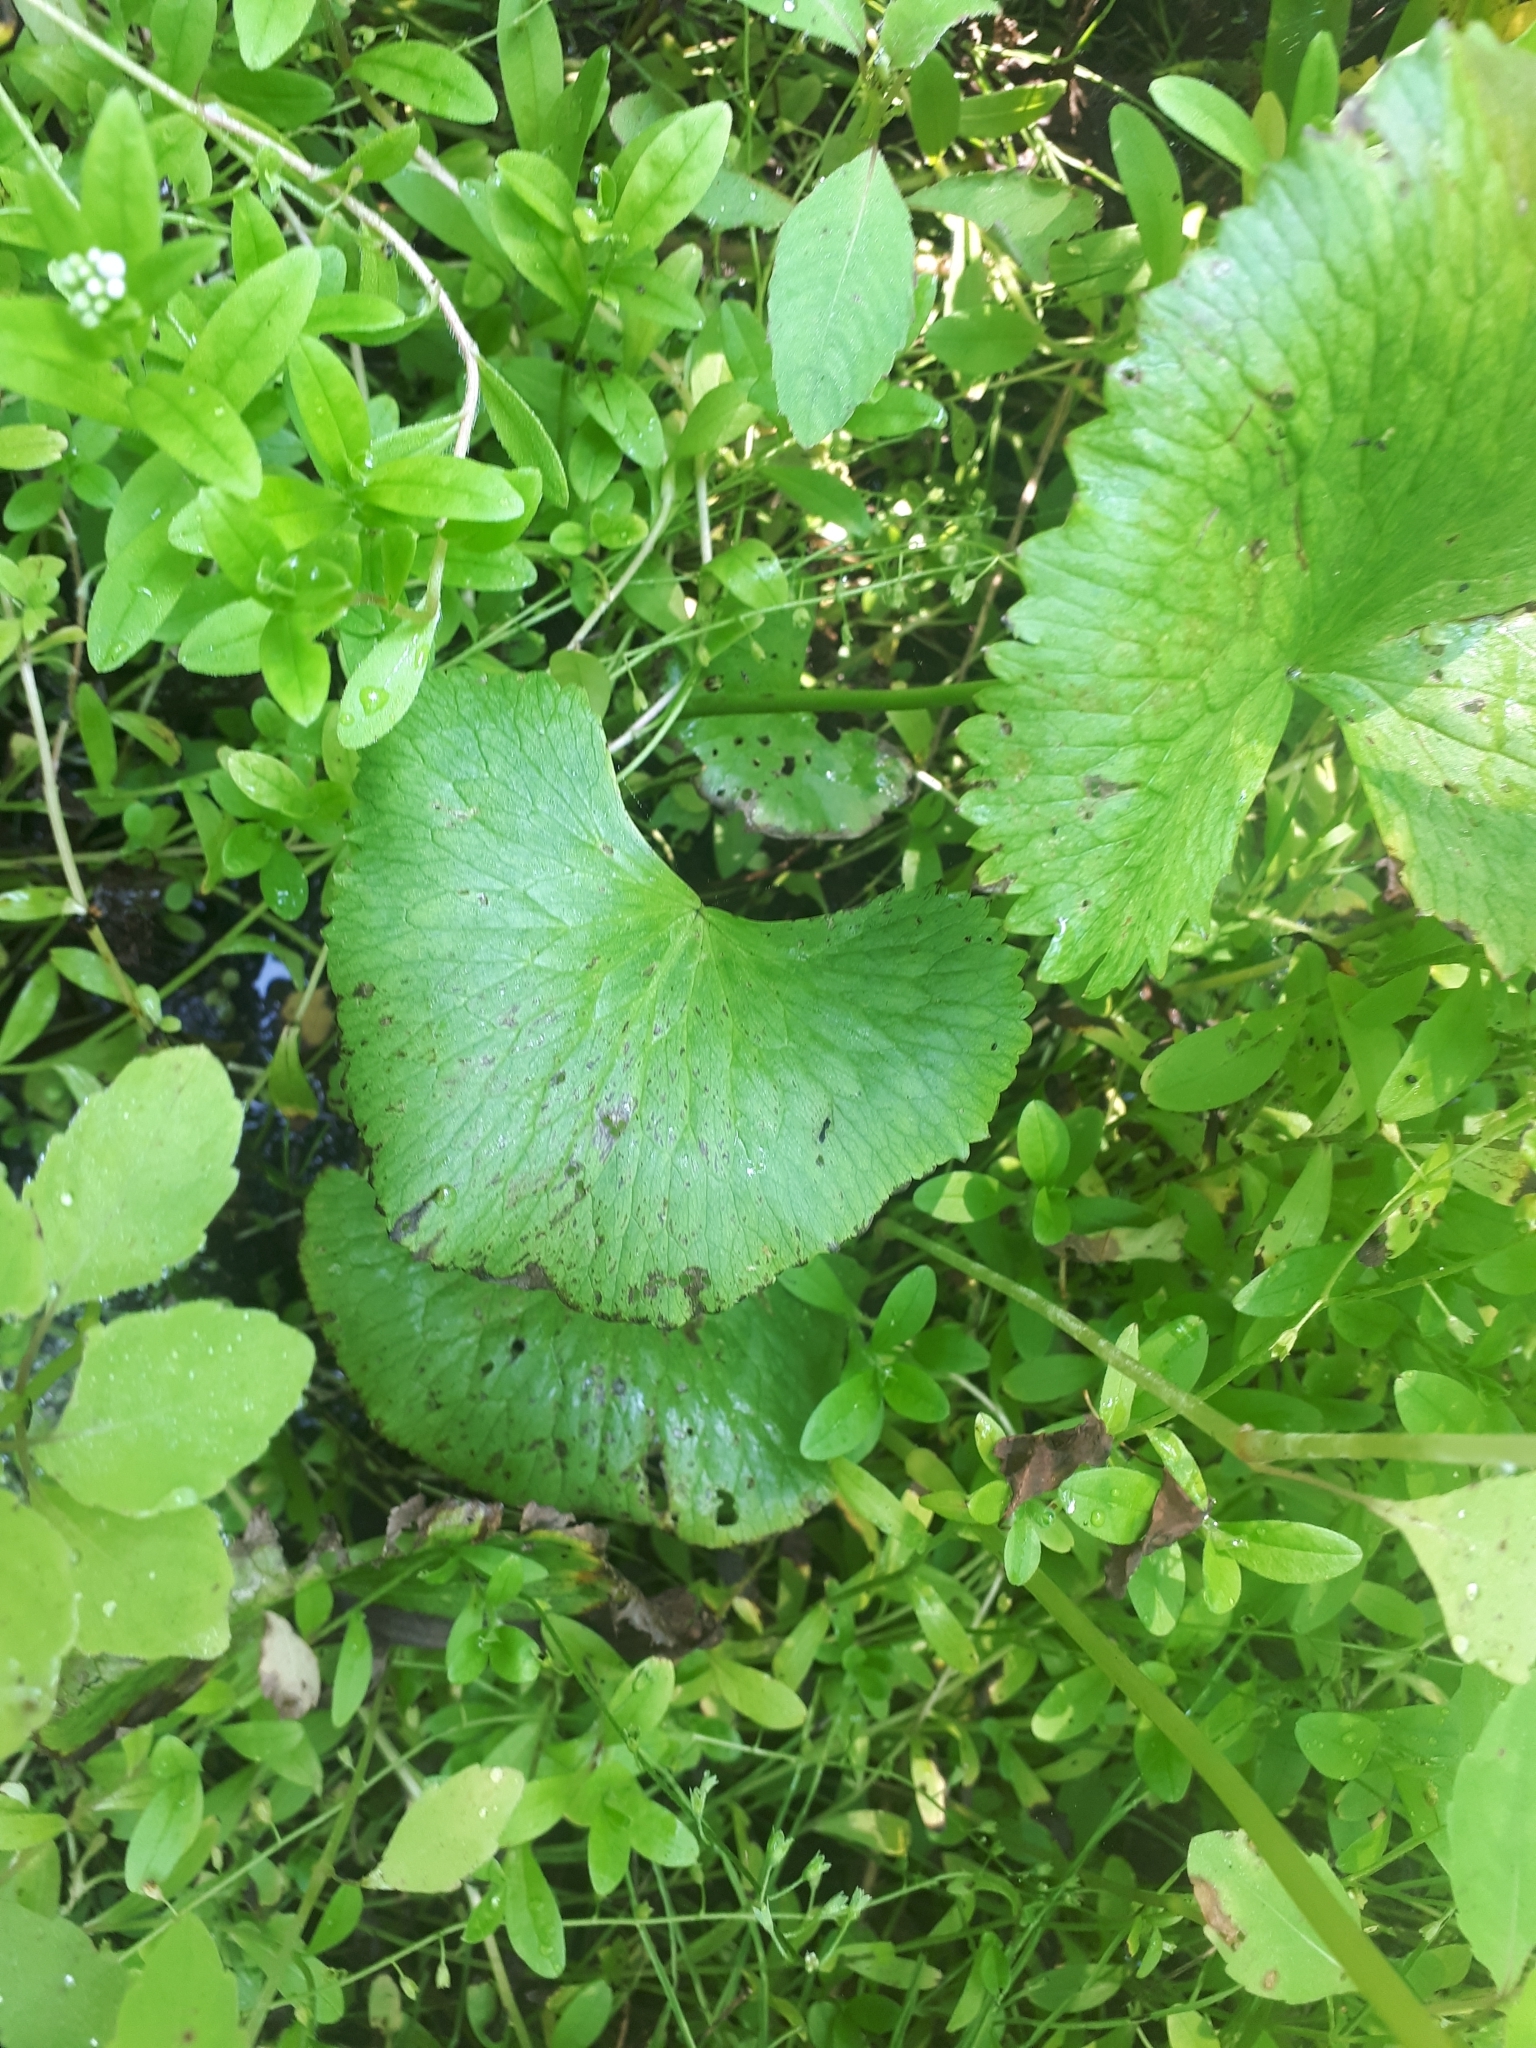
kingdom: Plantae
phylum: Tracheophyta
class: Magnoliopsida
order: Ranunculales
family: Ranunculaceae
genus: Caltha
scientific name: Caltha palustris
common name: Marsh marigold
